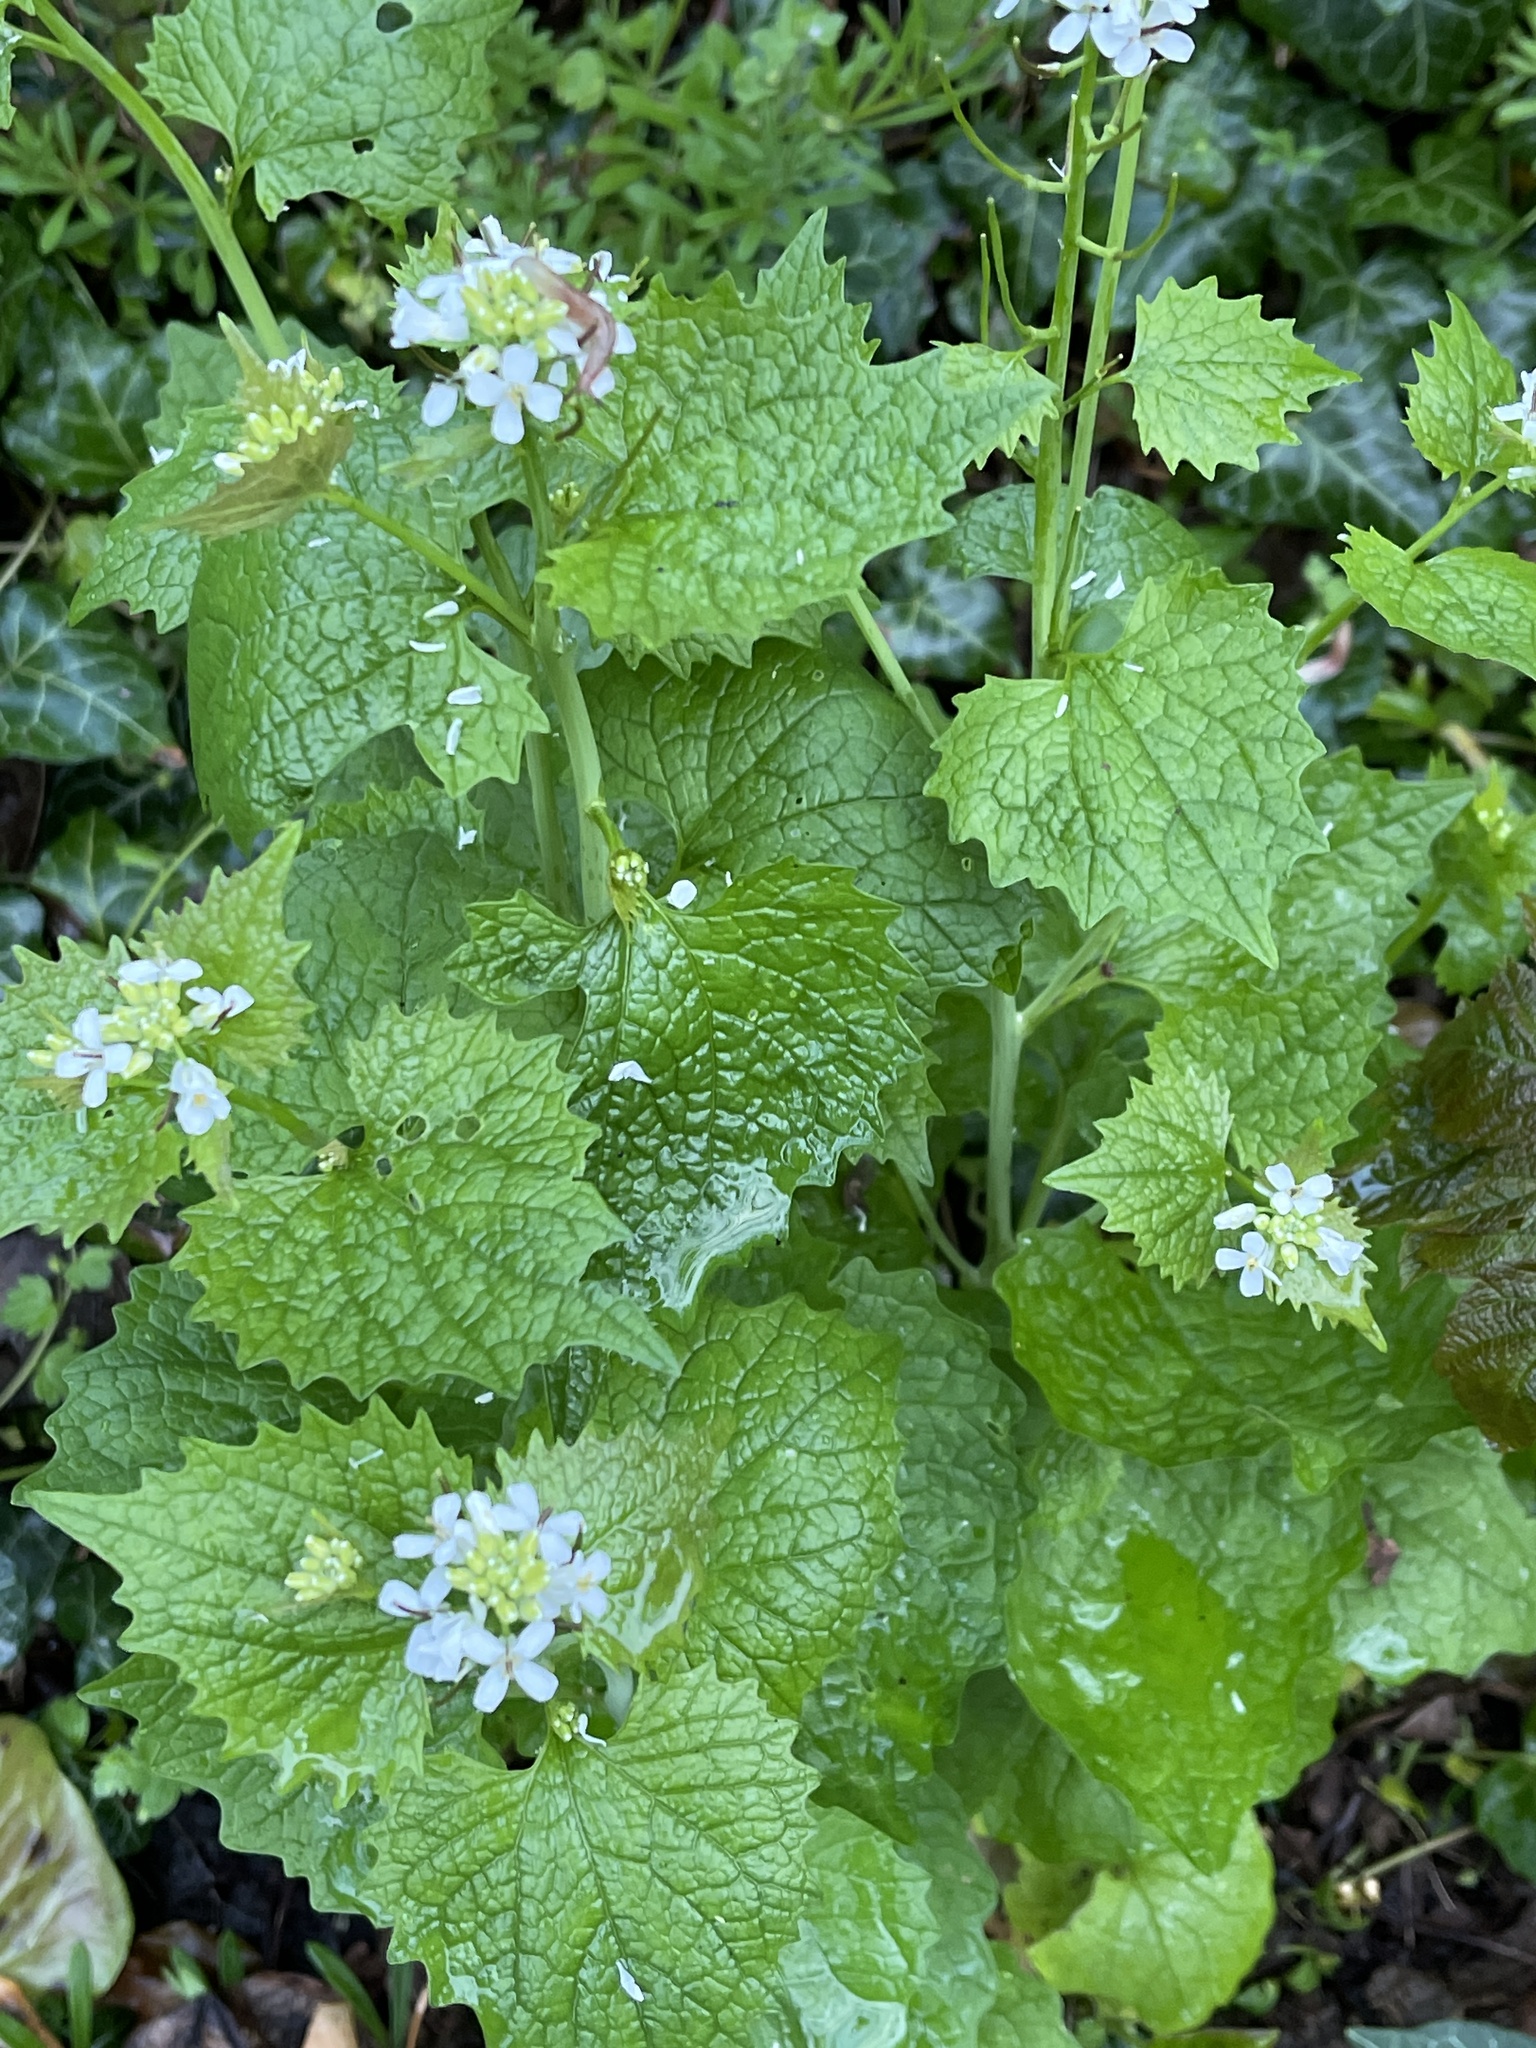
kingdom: Plantae
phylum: Tracheophyta
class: Magnoliopsida
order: Brassicales
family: Brassicaceae
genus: Alliaria
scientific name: Alliaria petiolata
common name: Garlic mustard
